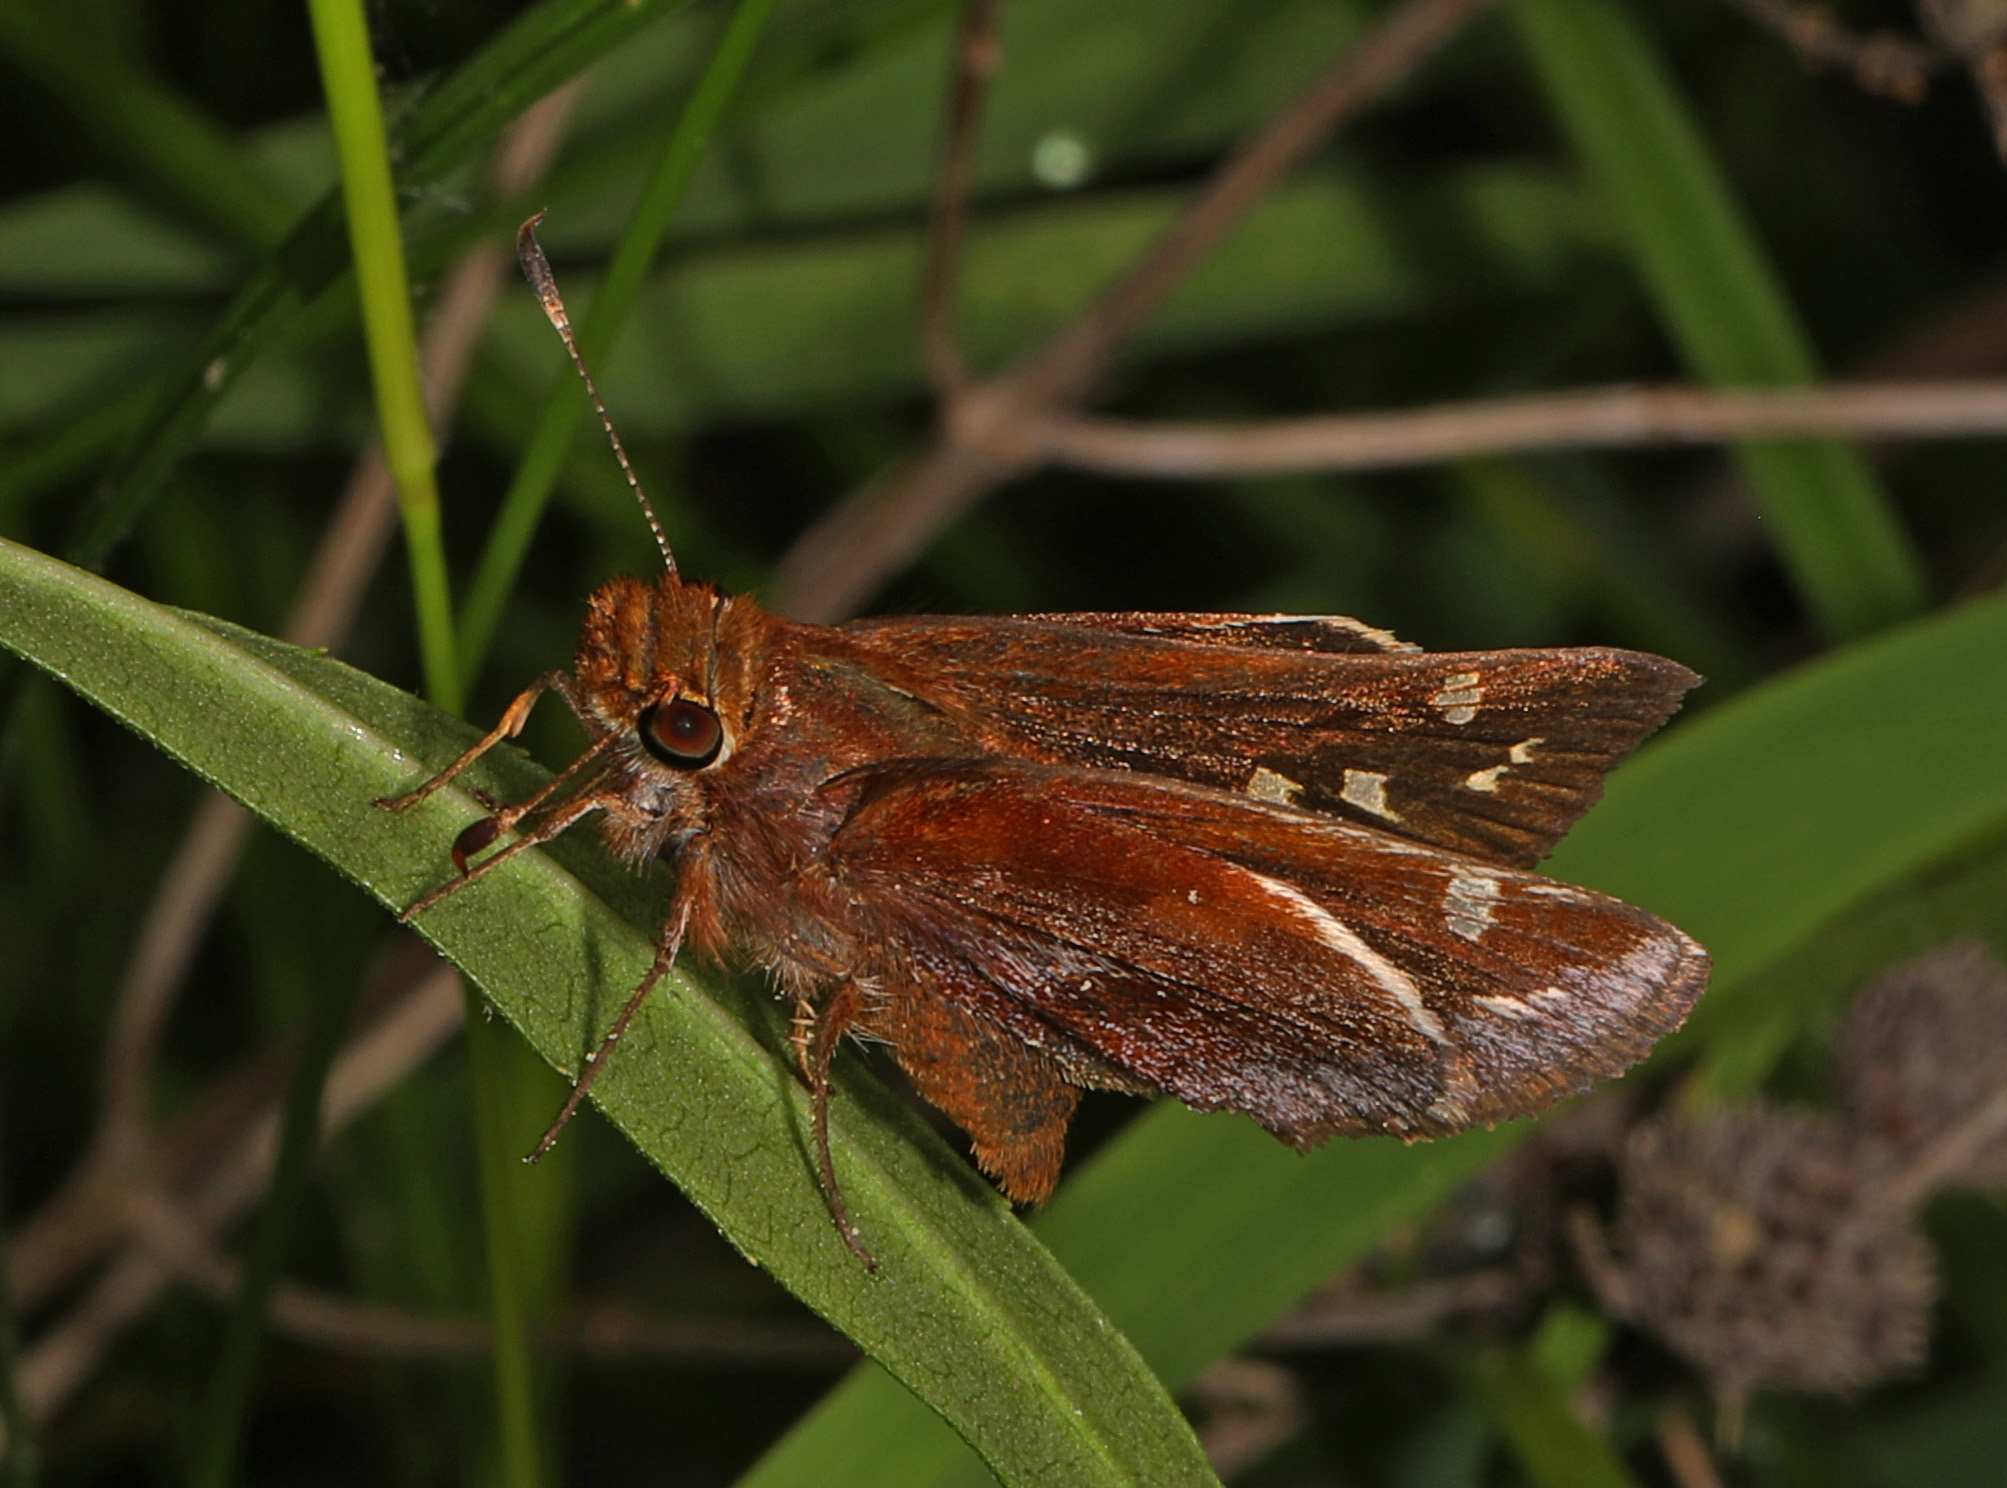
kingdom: Animalia
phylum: Arthropoda
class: Insecta
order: Lepidoptera
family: Hesperiidae
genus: Lon
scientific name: Lon zabulon
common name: Zabulon skipper
